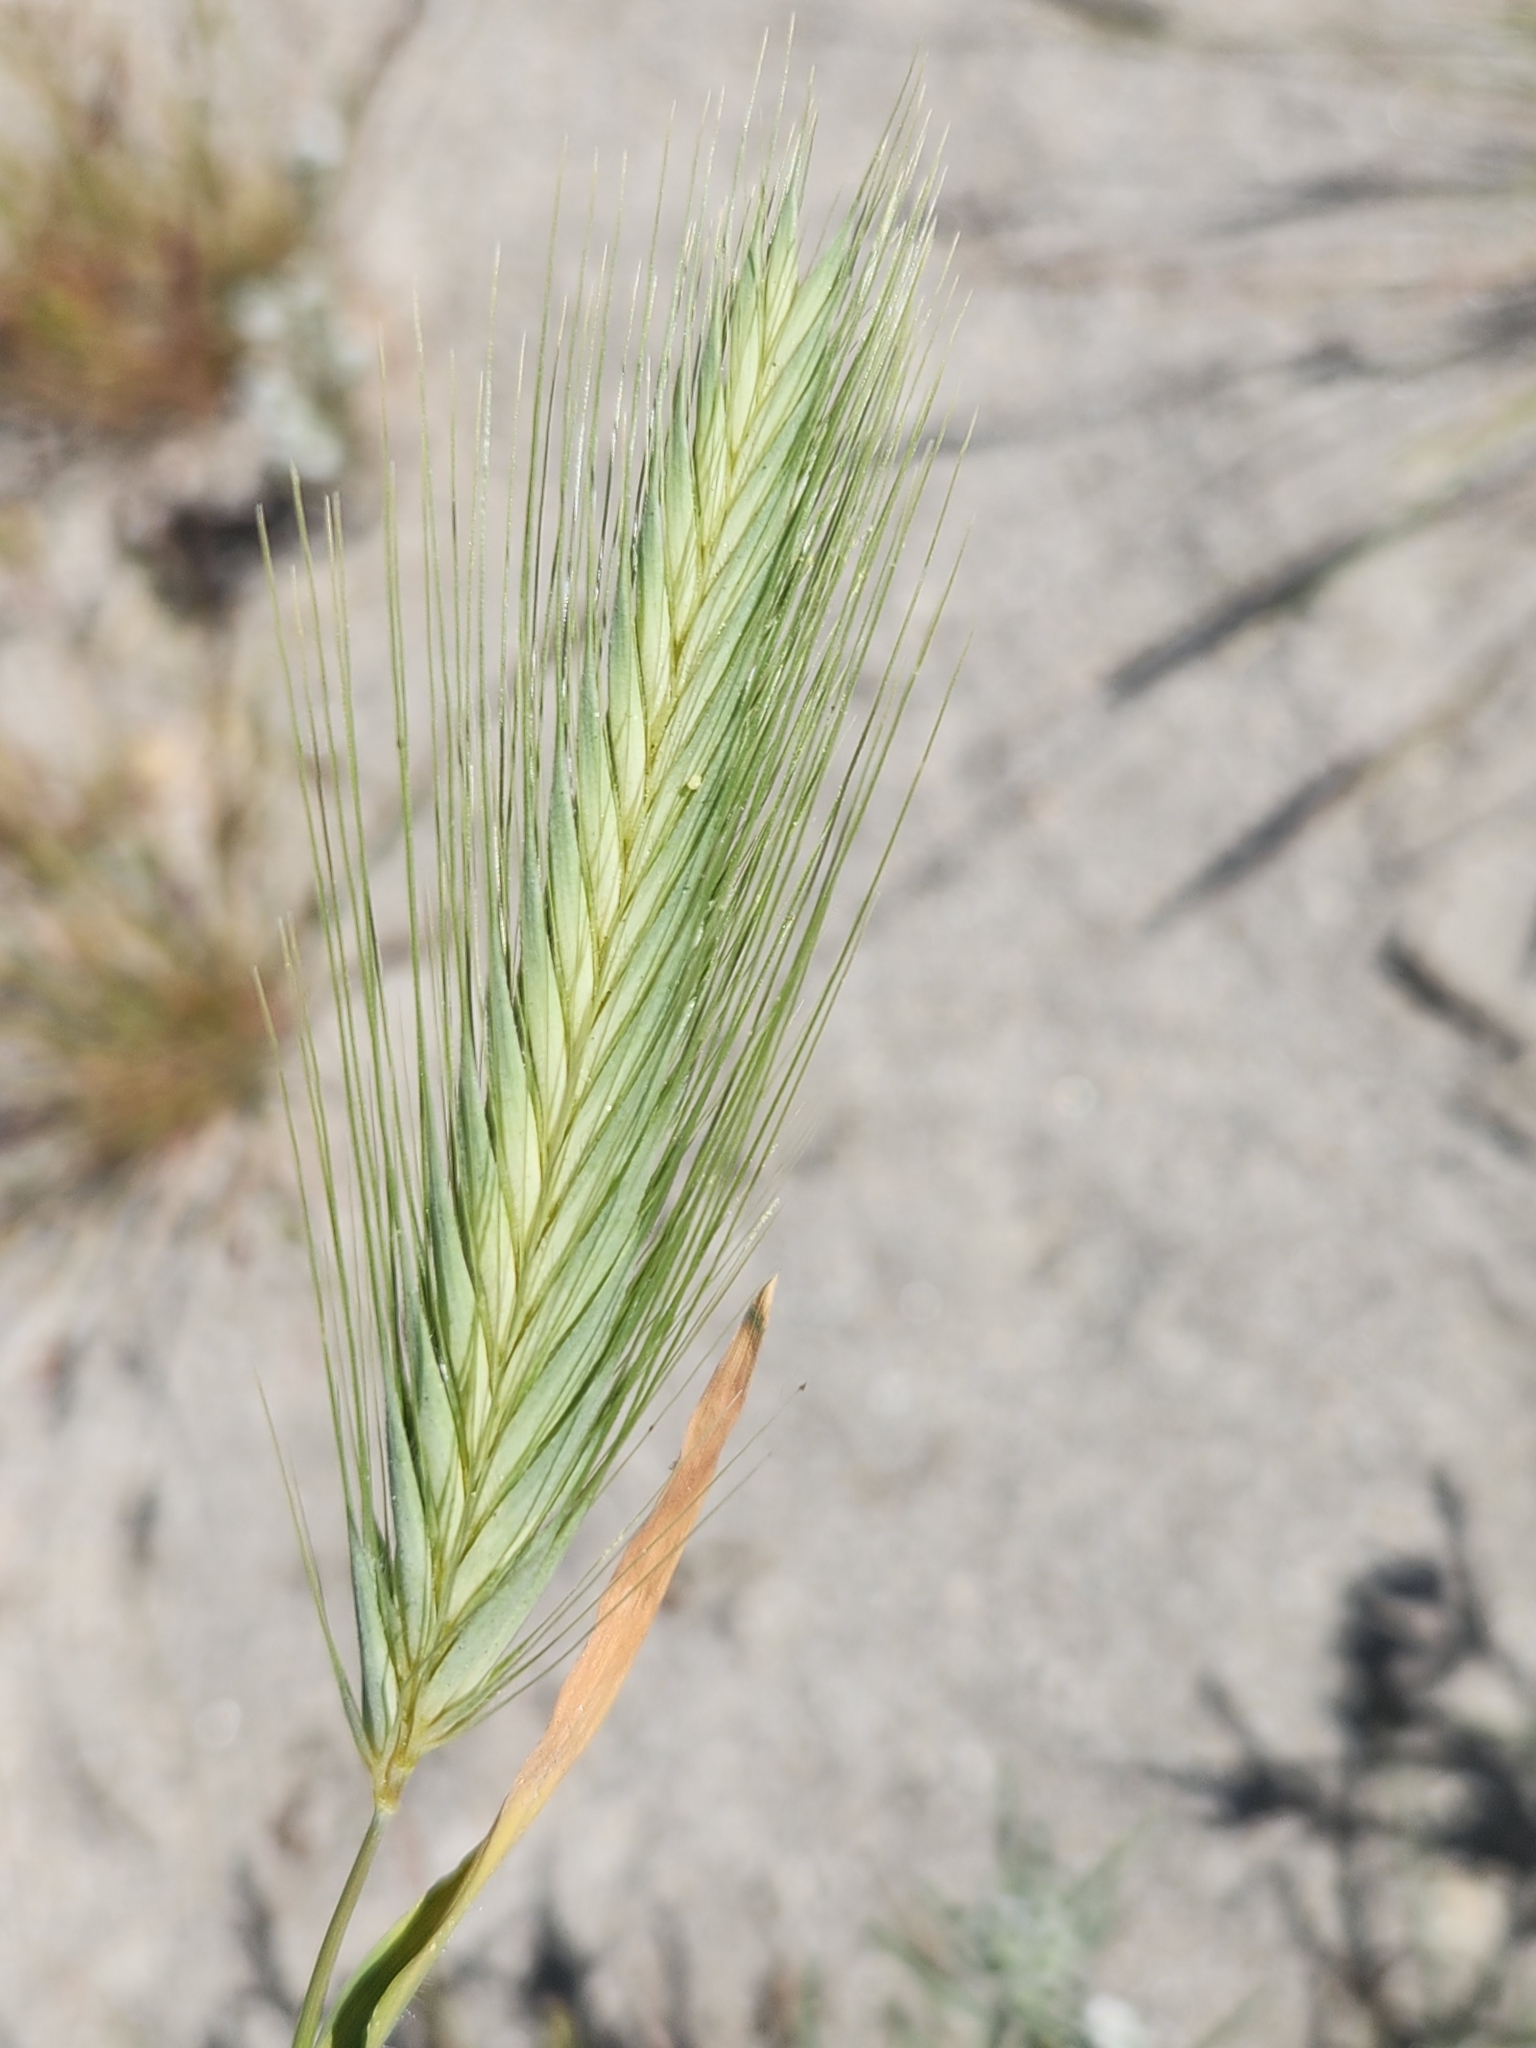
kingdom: Plantae
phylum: Tracheophyta
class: Liliopsida
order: Poales
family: Poaceae
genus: Hordeum
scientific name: Hordeum murinum
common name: Wall barley
